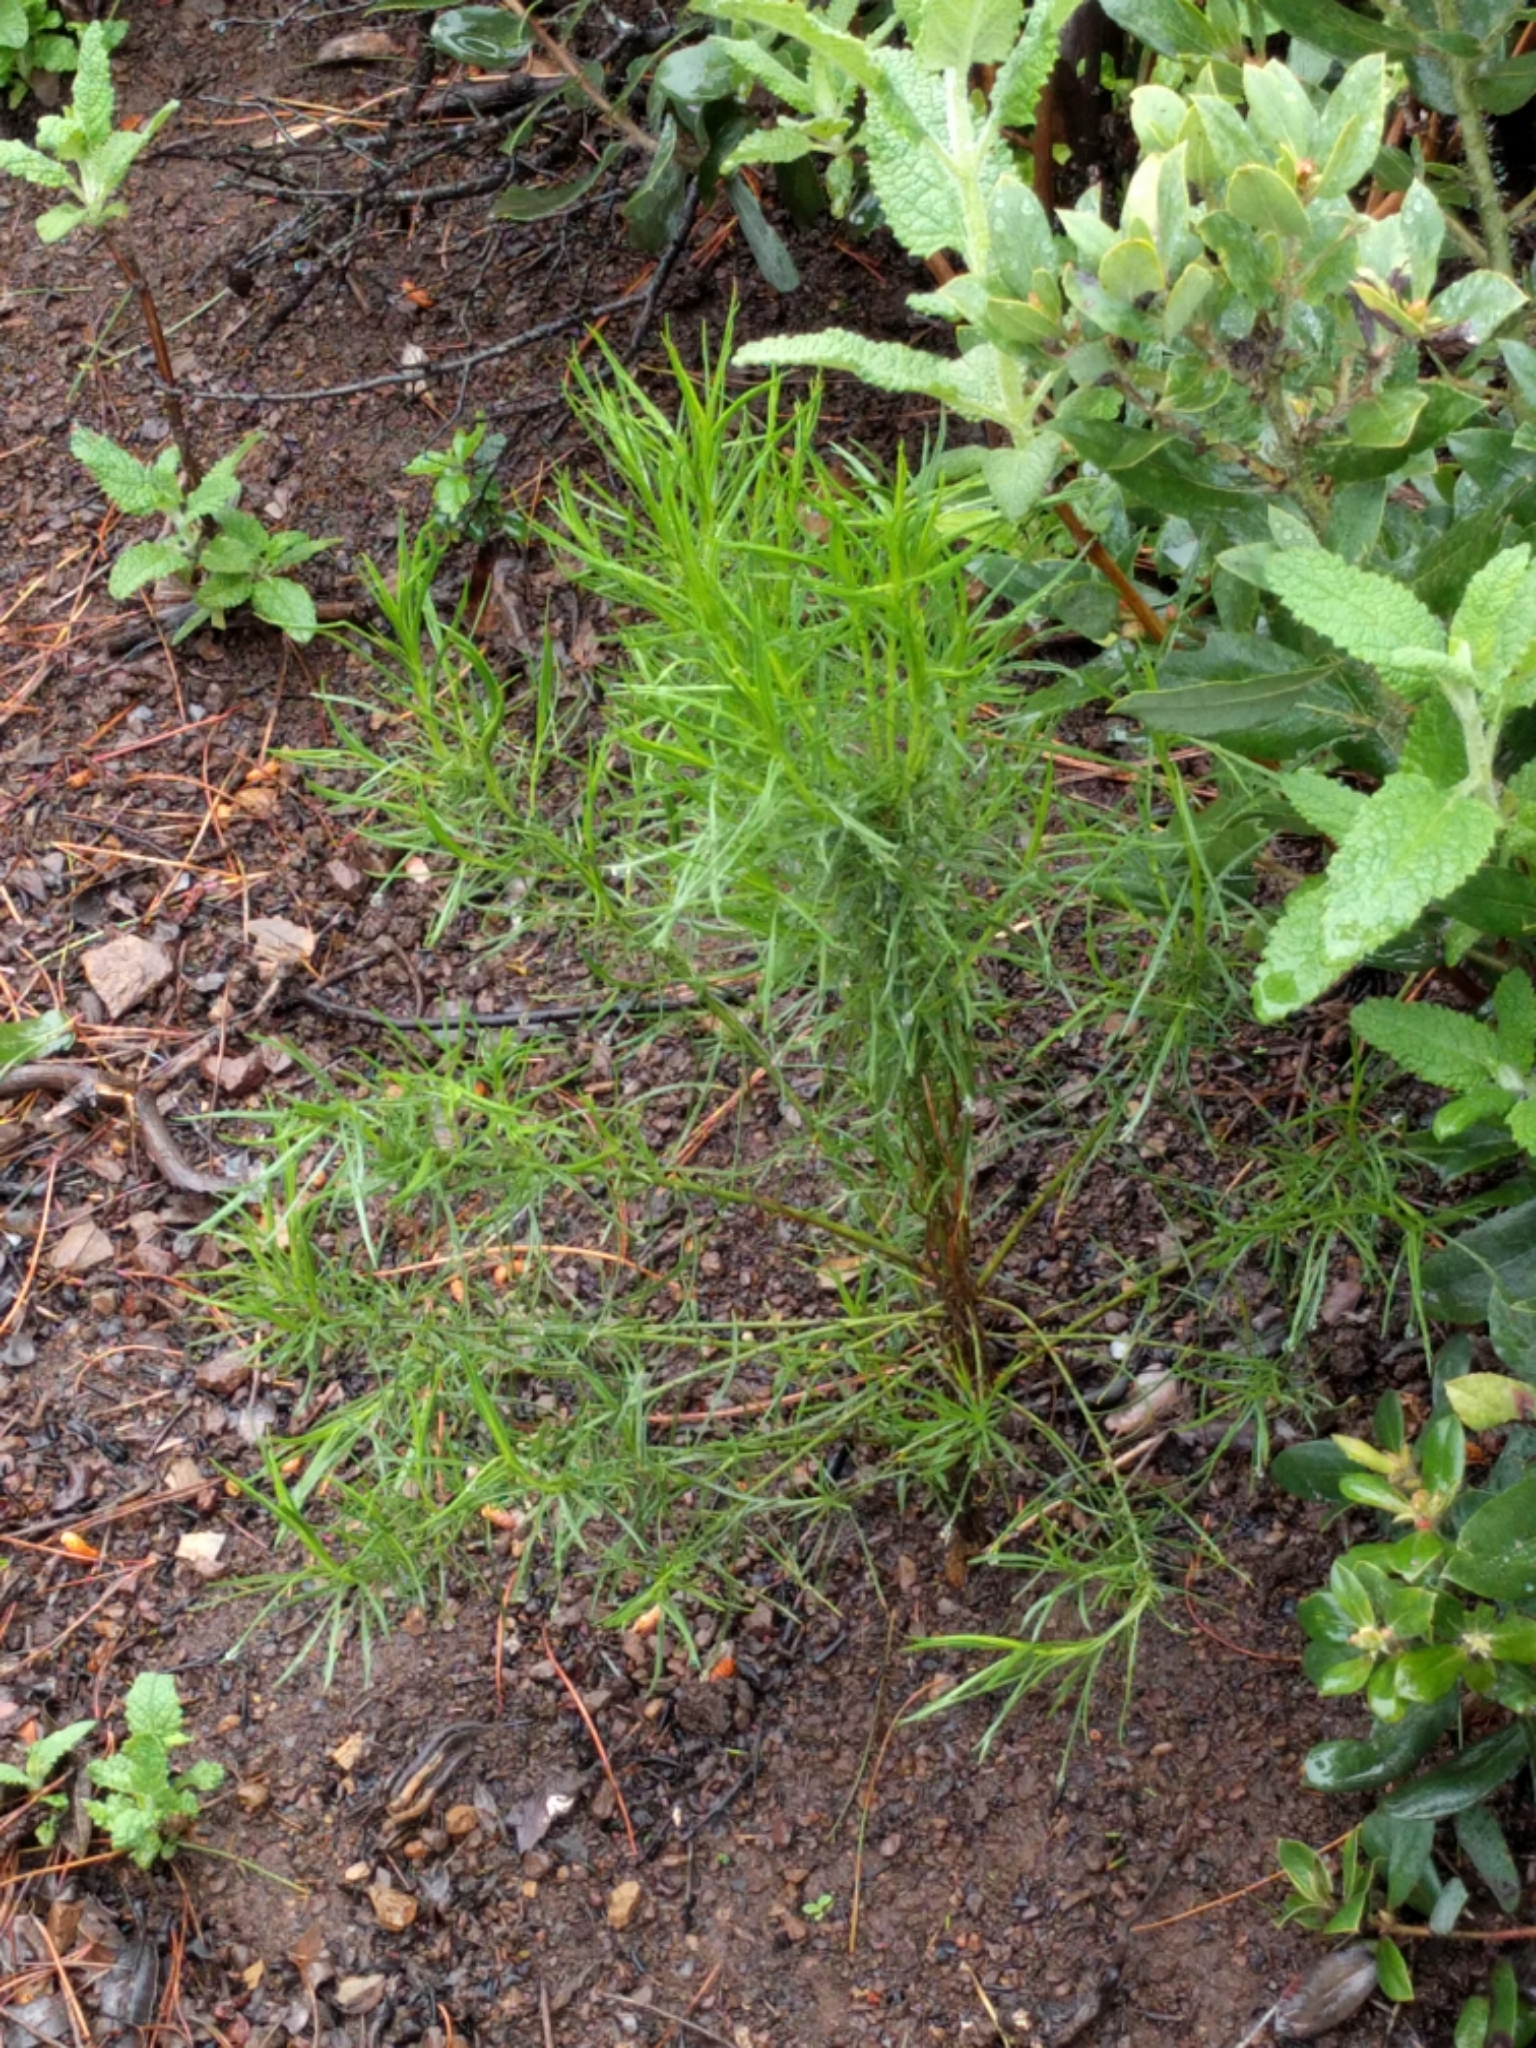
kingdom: Plantae
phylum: Tracheophyta
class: Magnoliopsida
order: Asterales
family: Asteraceae
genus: Ericameria
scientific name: Ericameria arborescens
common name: Goldenfleece
